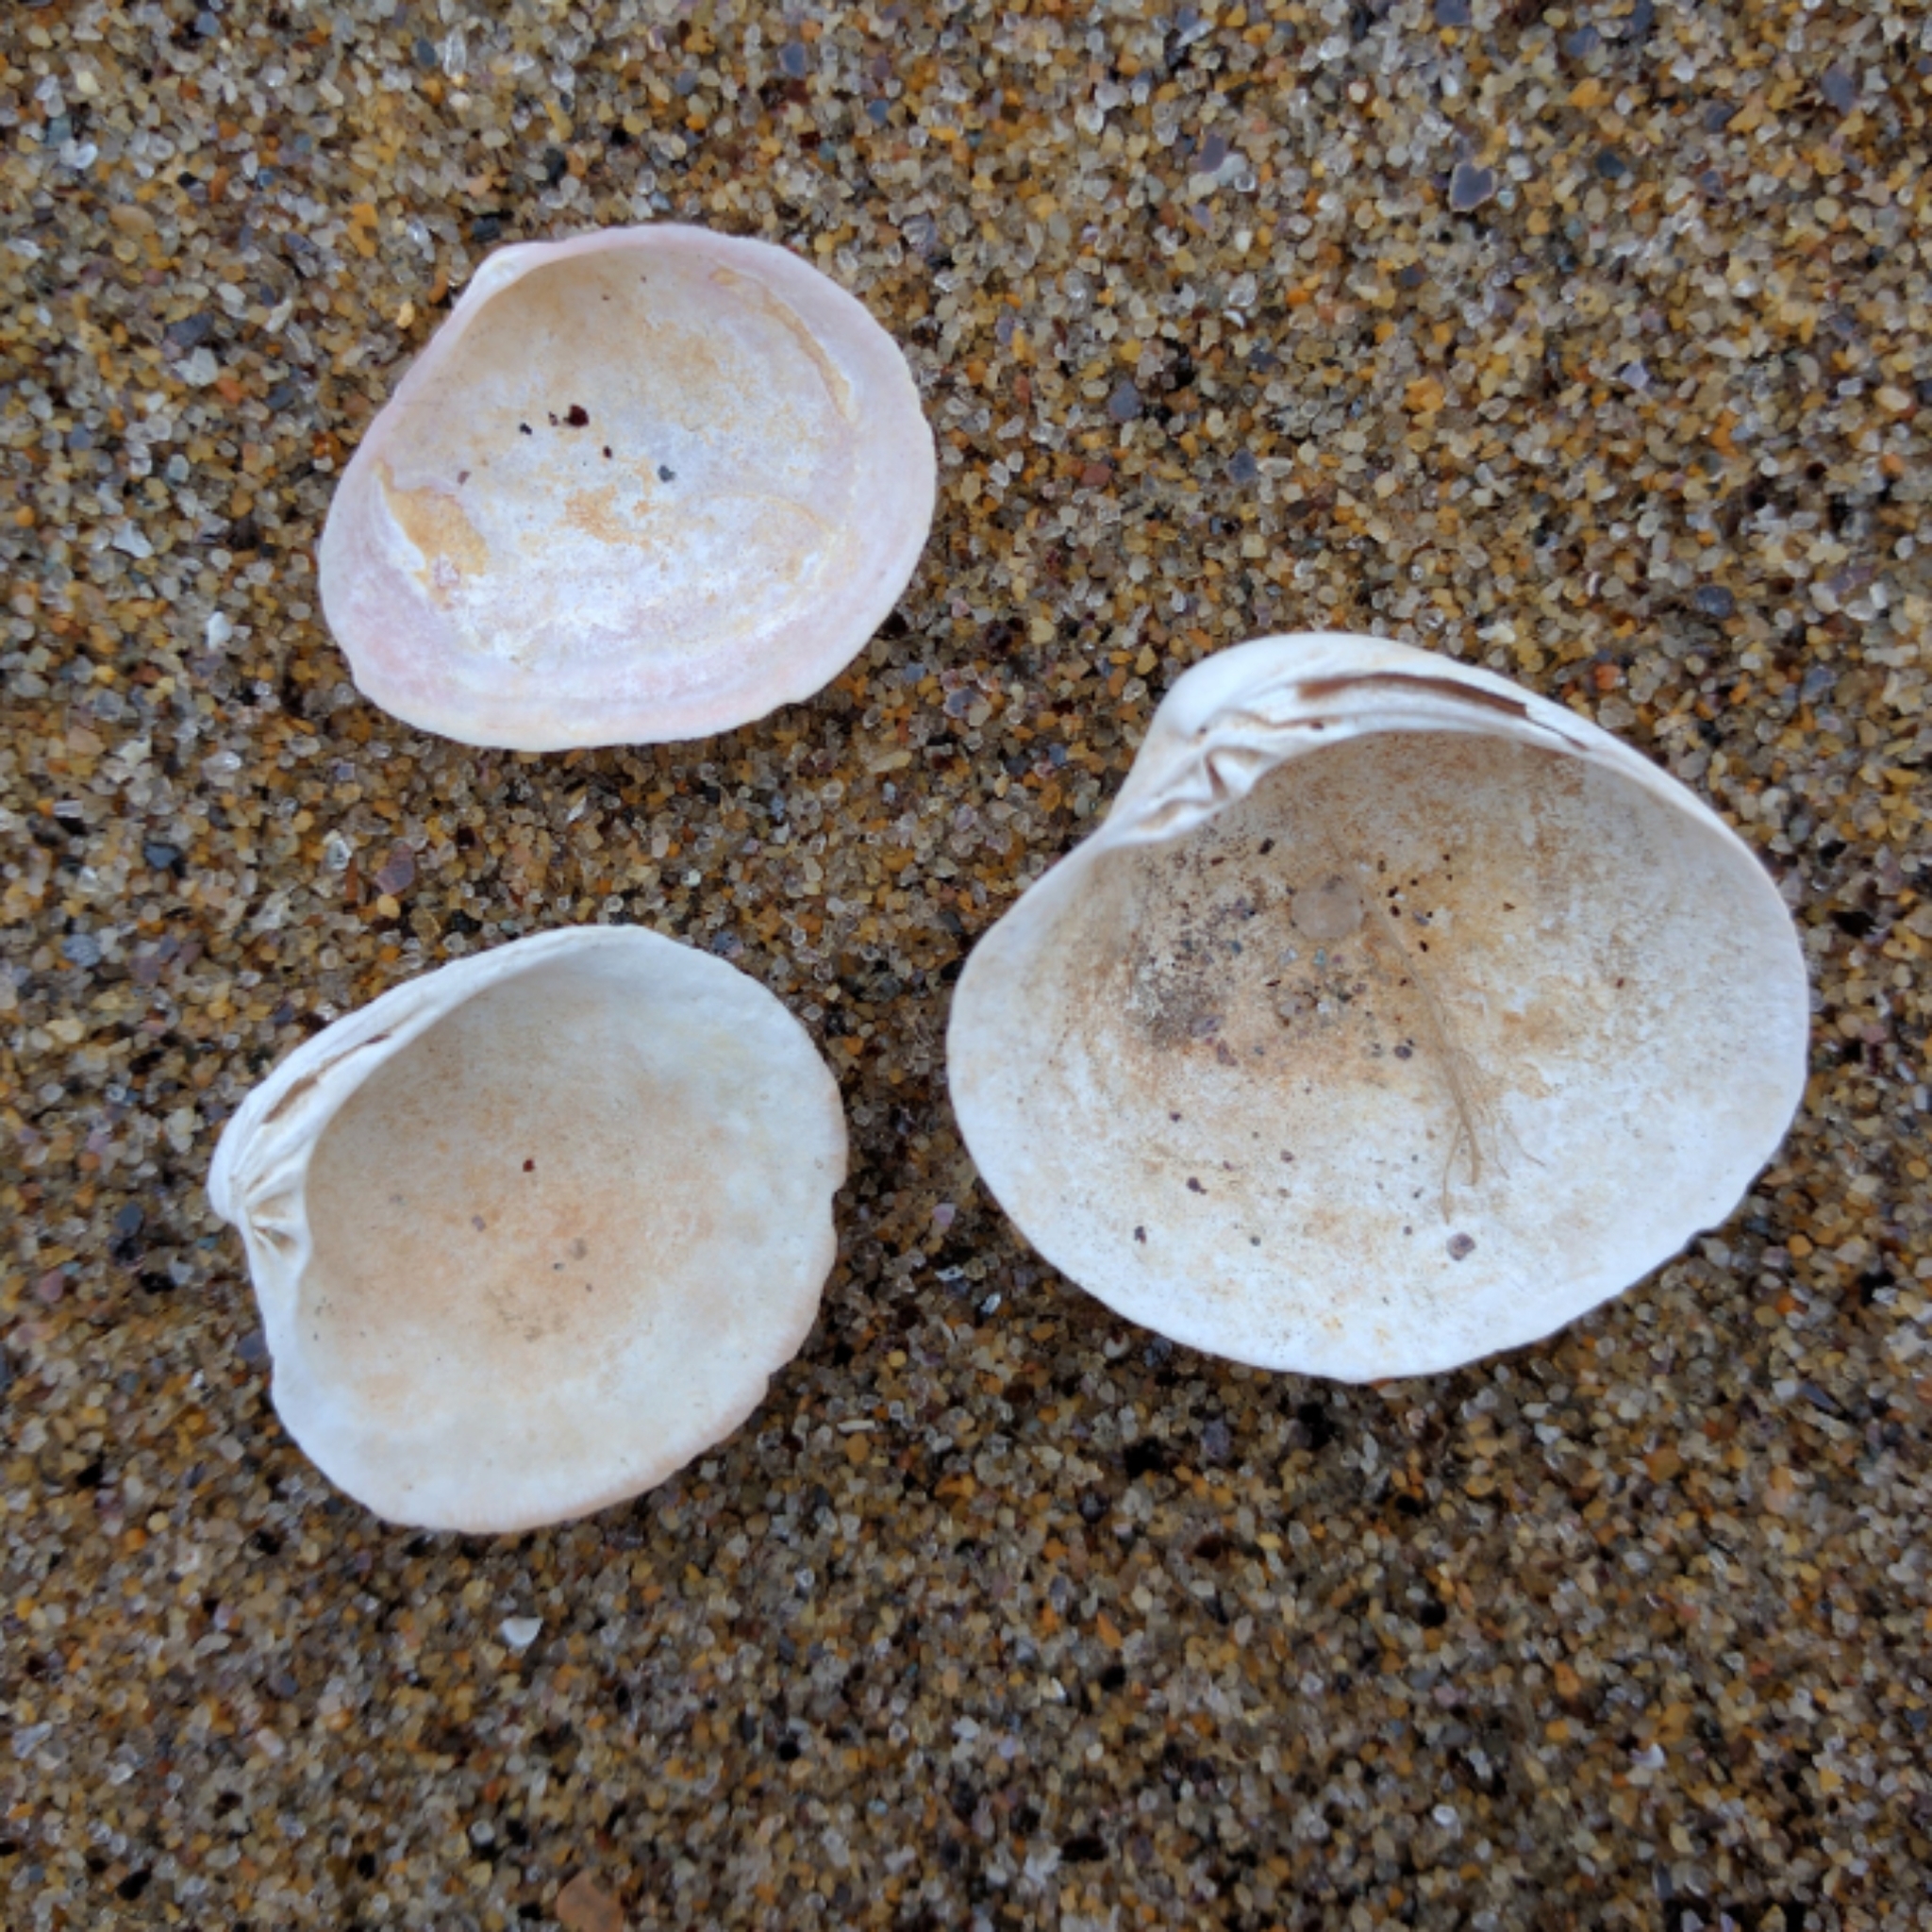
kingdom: Animalia
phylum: Mollusca
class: Bivalvia
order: Venerida
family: Veneridae
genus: Mercenaria
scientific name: Mercenaria mercenaria
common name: American hard-shelled clam
